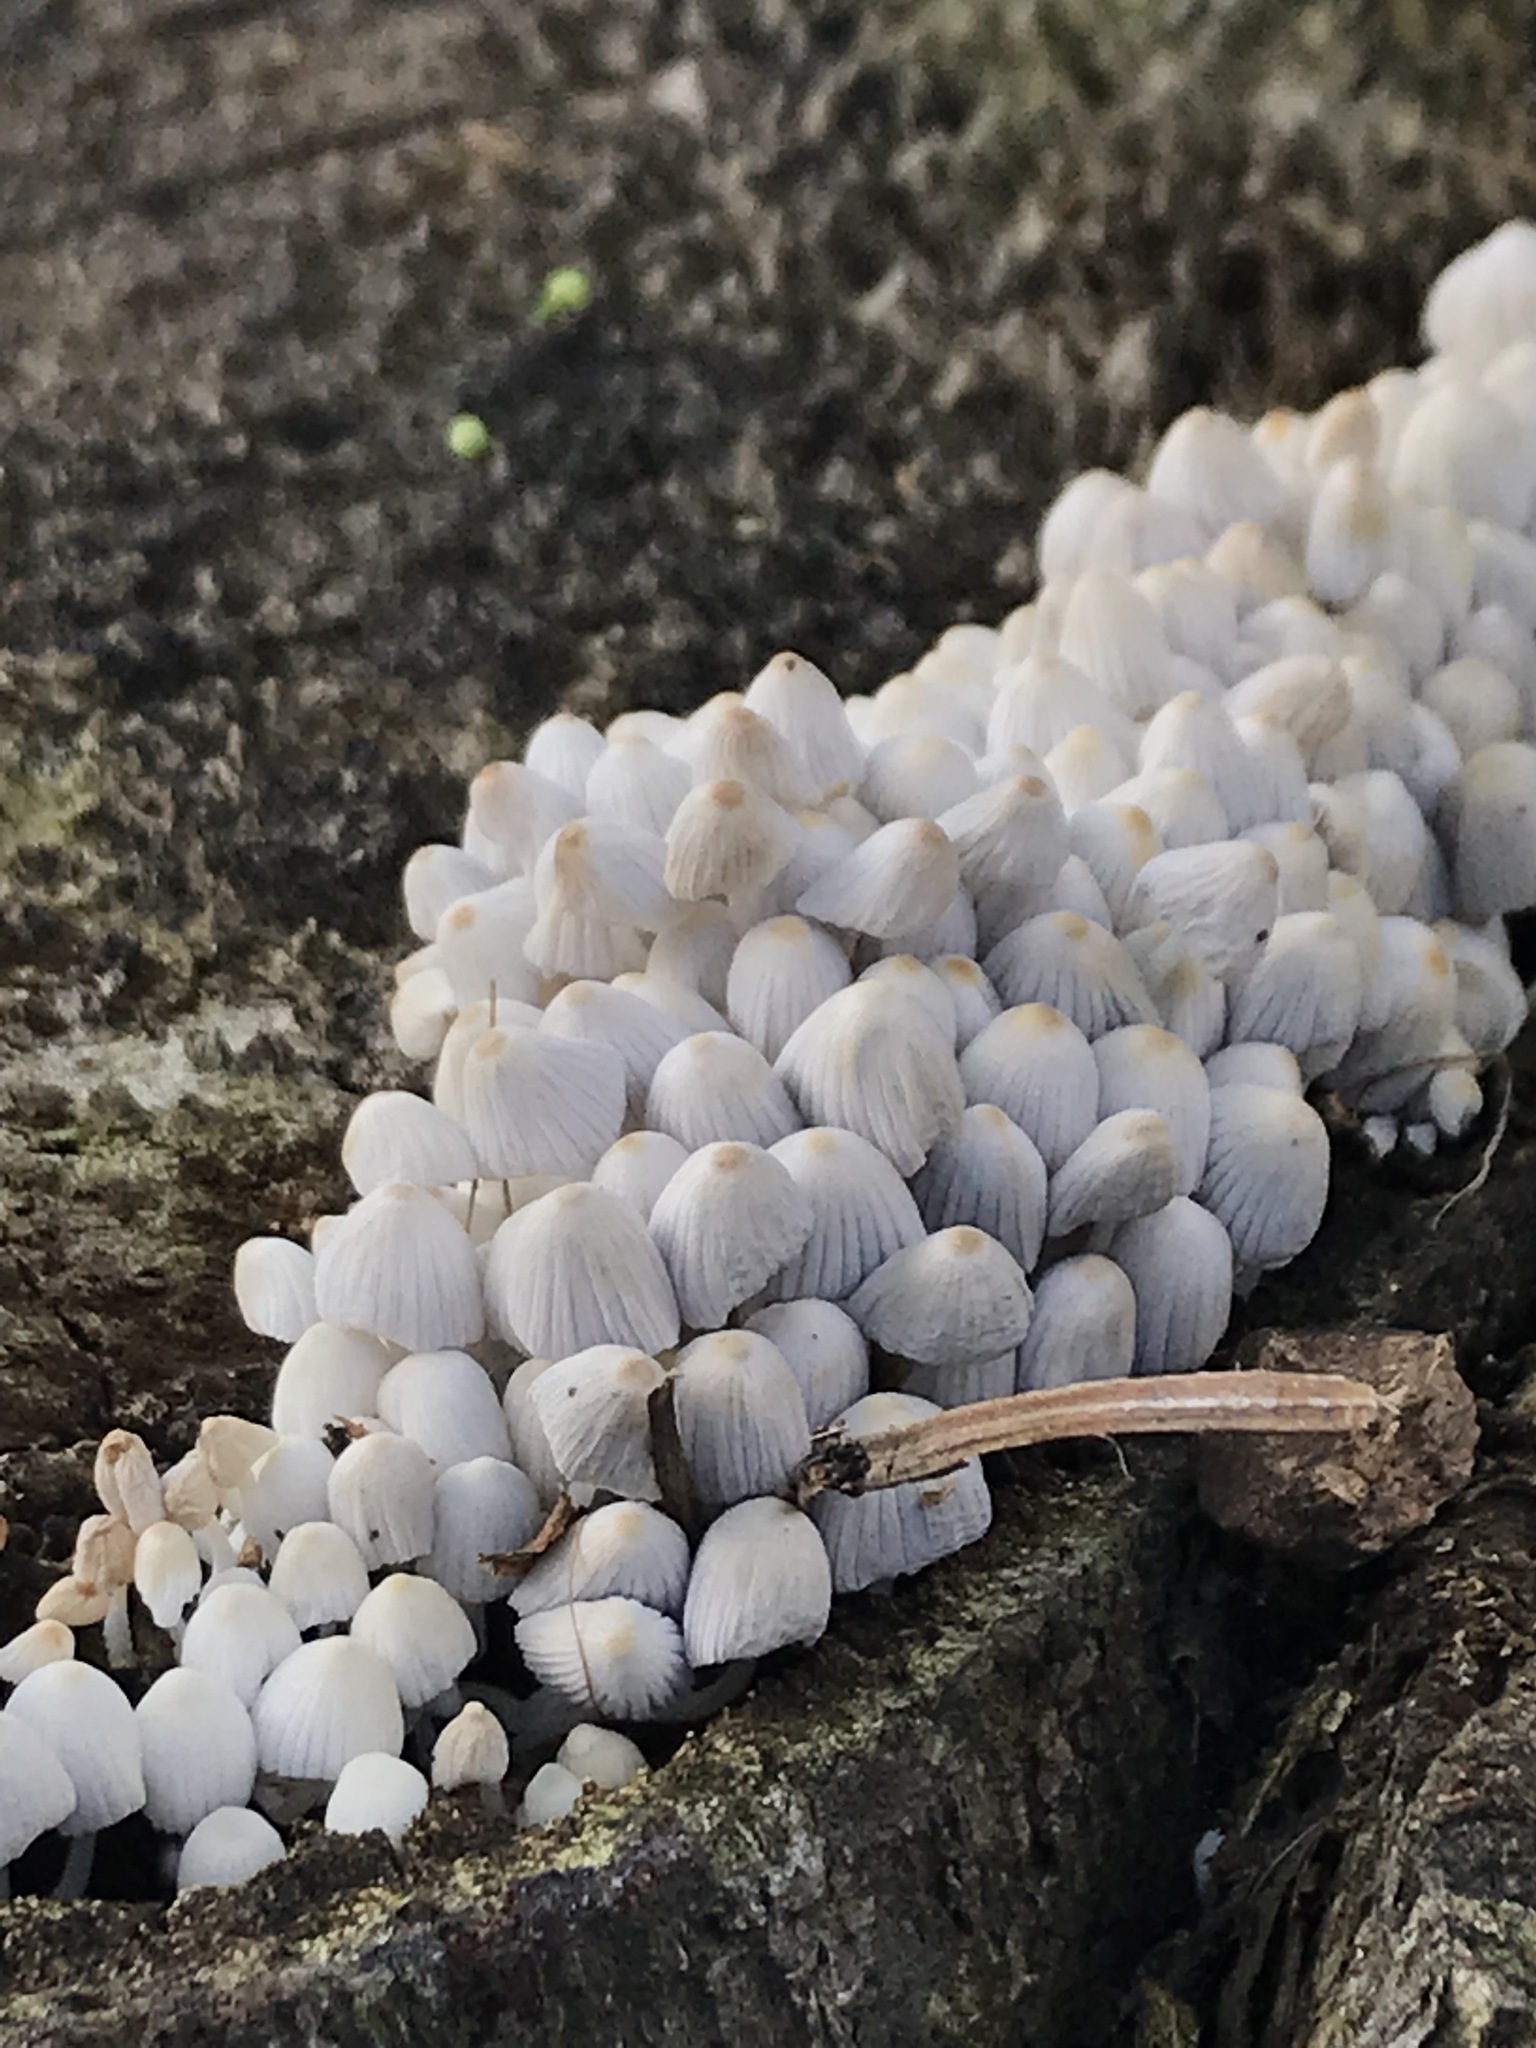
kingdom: Fungi
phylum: Basidiomycota
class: Agaricomycetes
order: Agaricales
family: Psathyrellaceae
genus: Coprinellus
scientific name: Coprinellus disseminatus
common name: Fairies' bonnets
